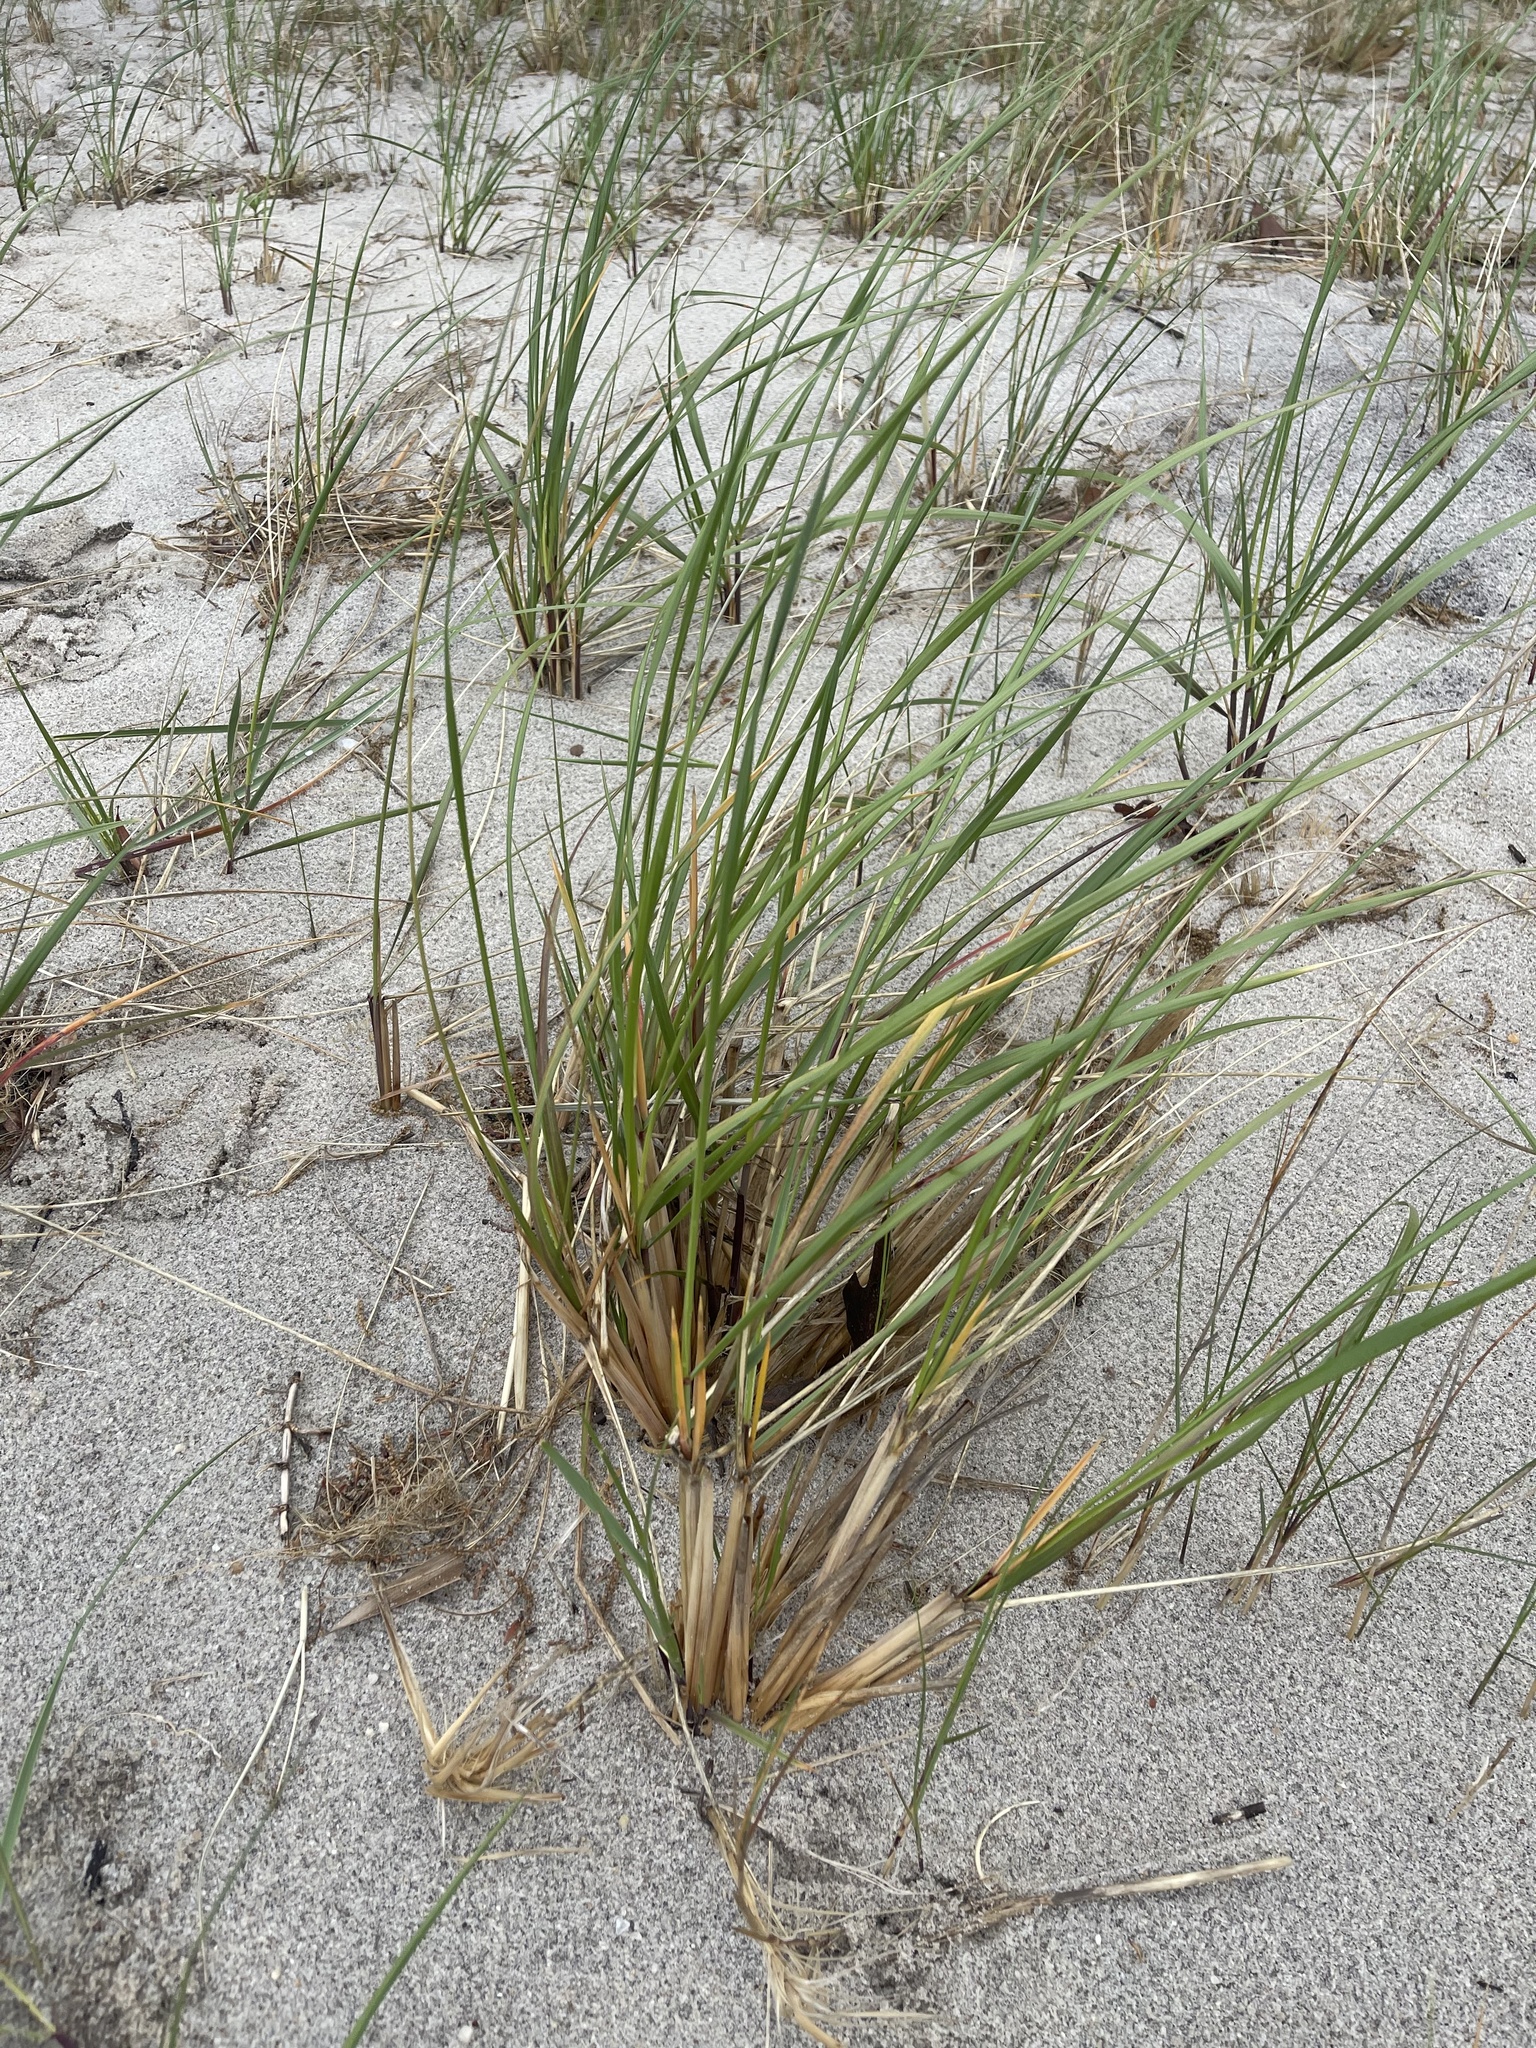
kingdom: Plantae
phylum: Tracheophyta
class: Liliopsida
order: Poales
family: Poaceae
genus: Calamagrostis
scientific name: Calamagrostis breviligulata
